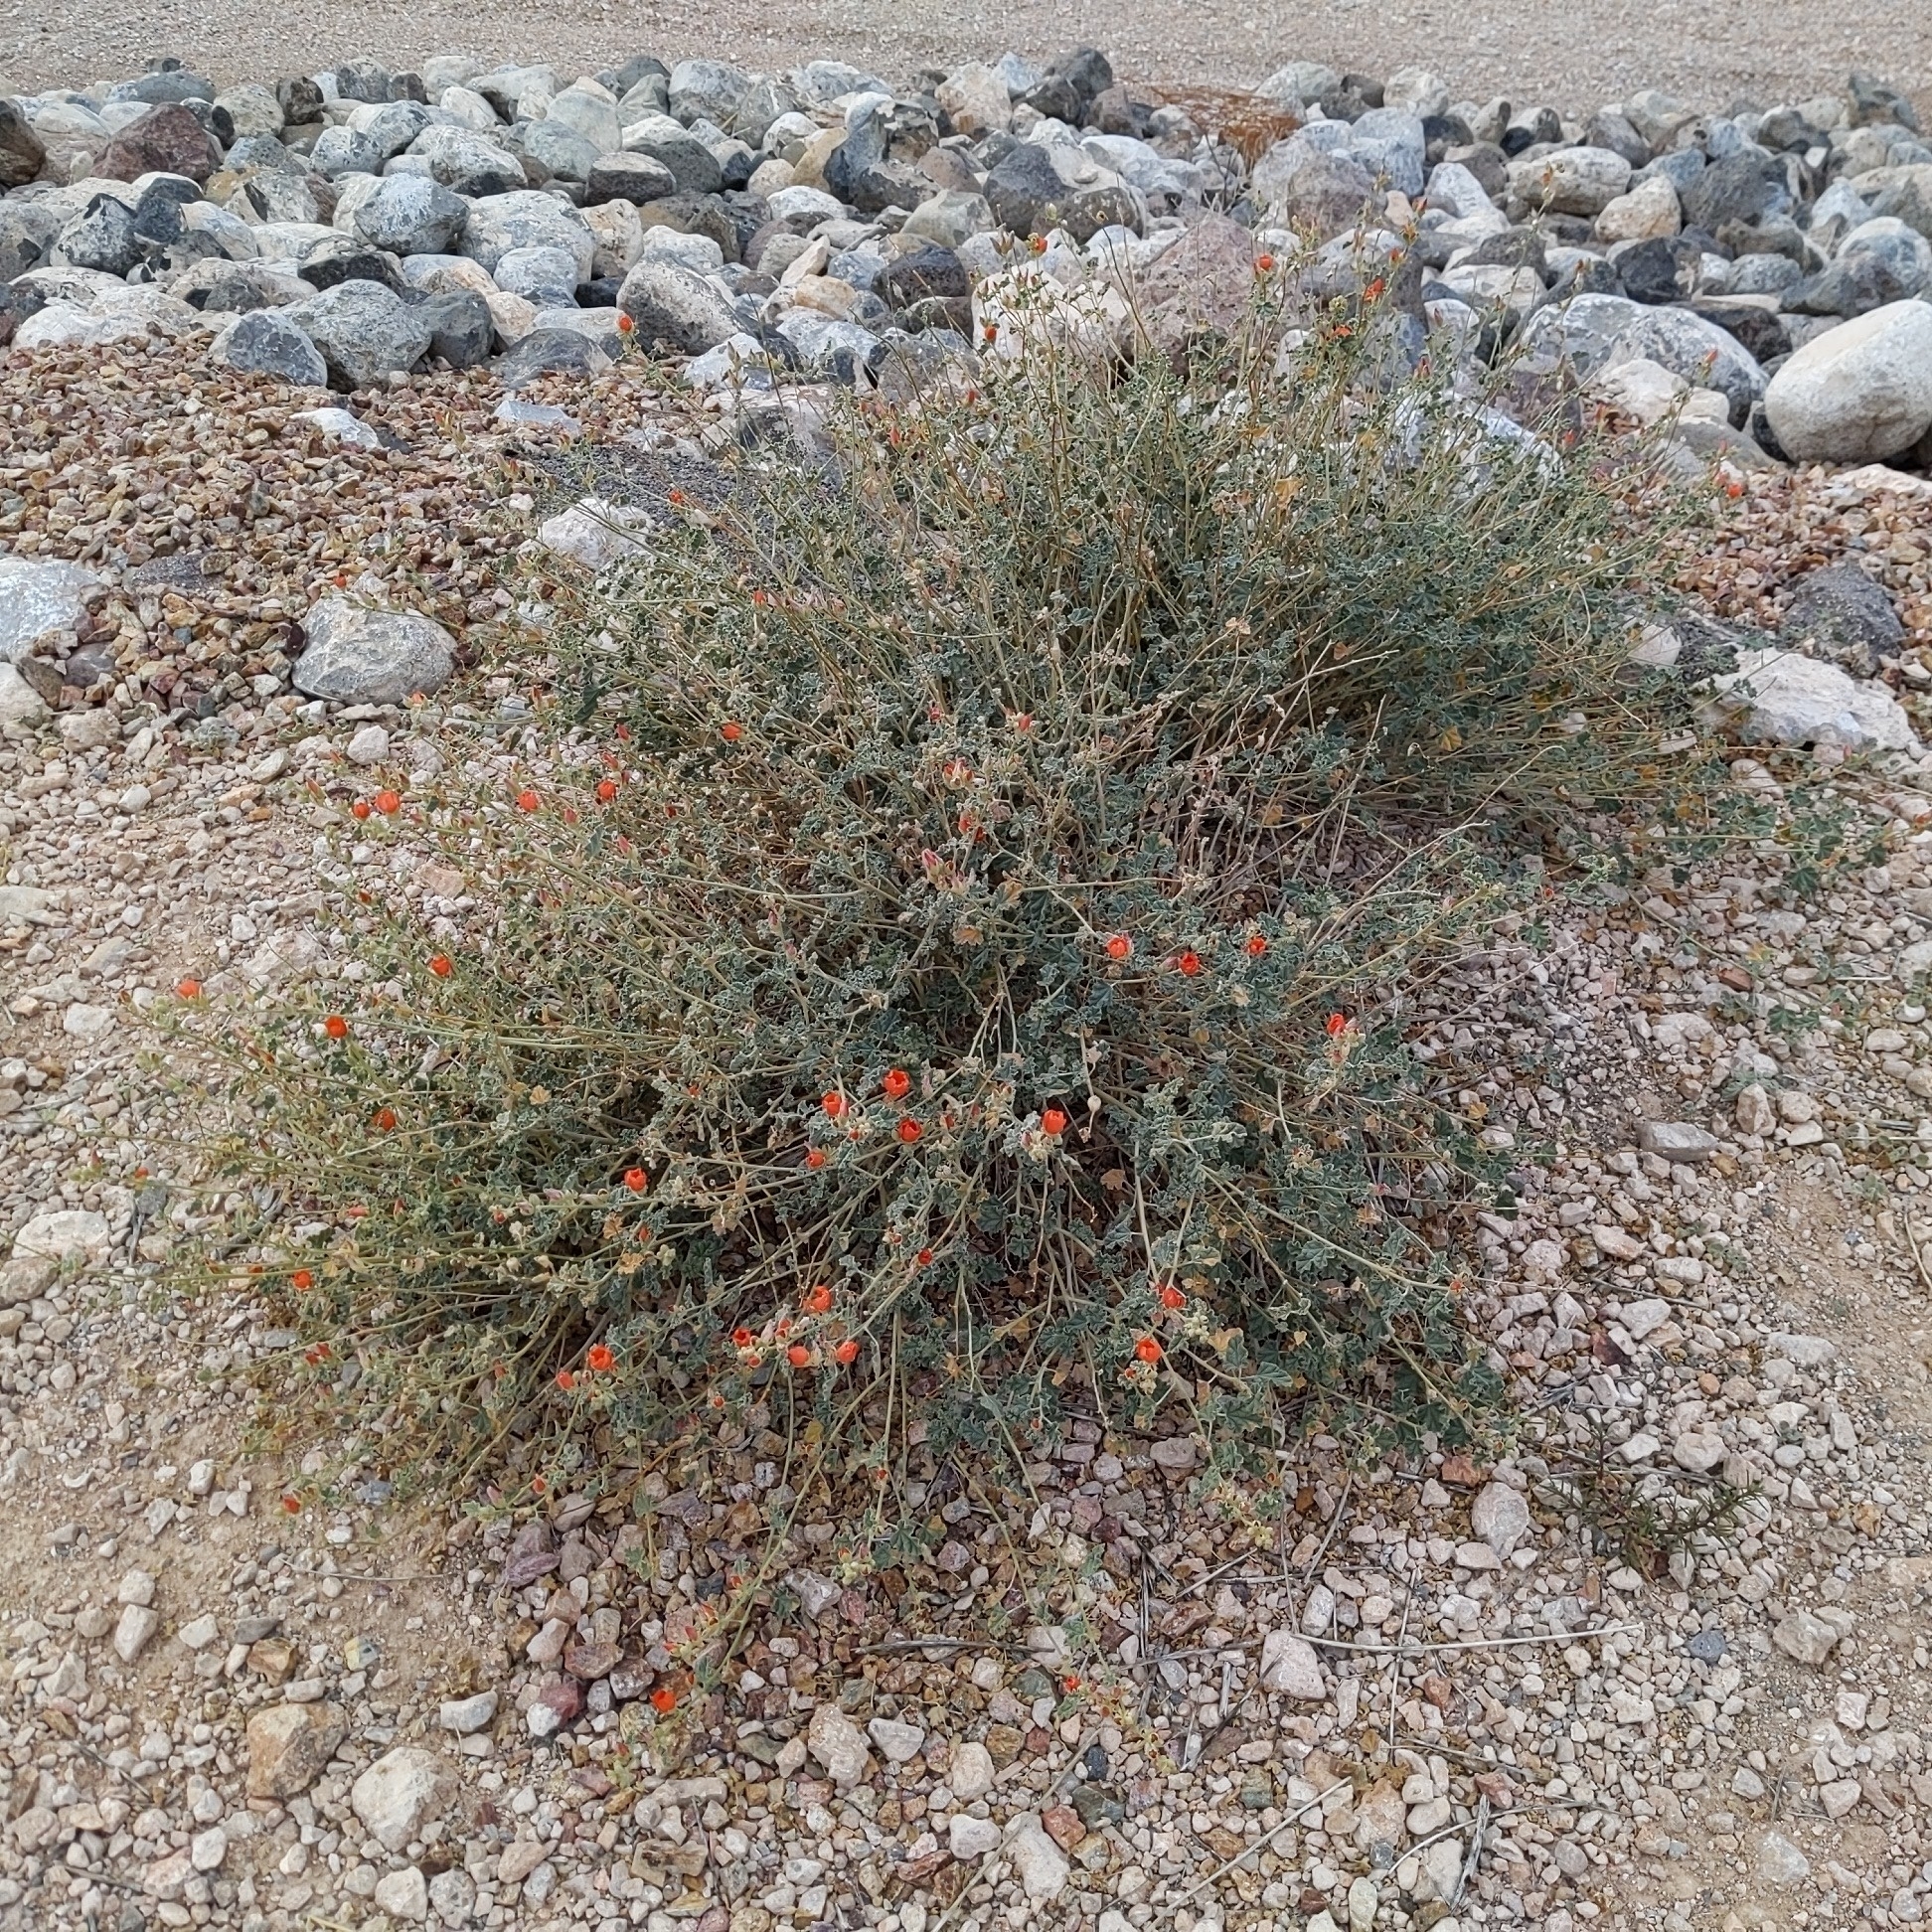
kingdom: Plantae
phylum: Tracheophyta
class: Magnoliopsida
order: Malvales
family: Malvaceae
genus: Sphaeralcea
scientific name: Sphaeralcea ambigua
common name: Apricot globe-mallow
